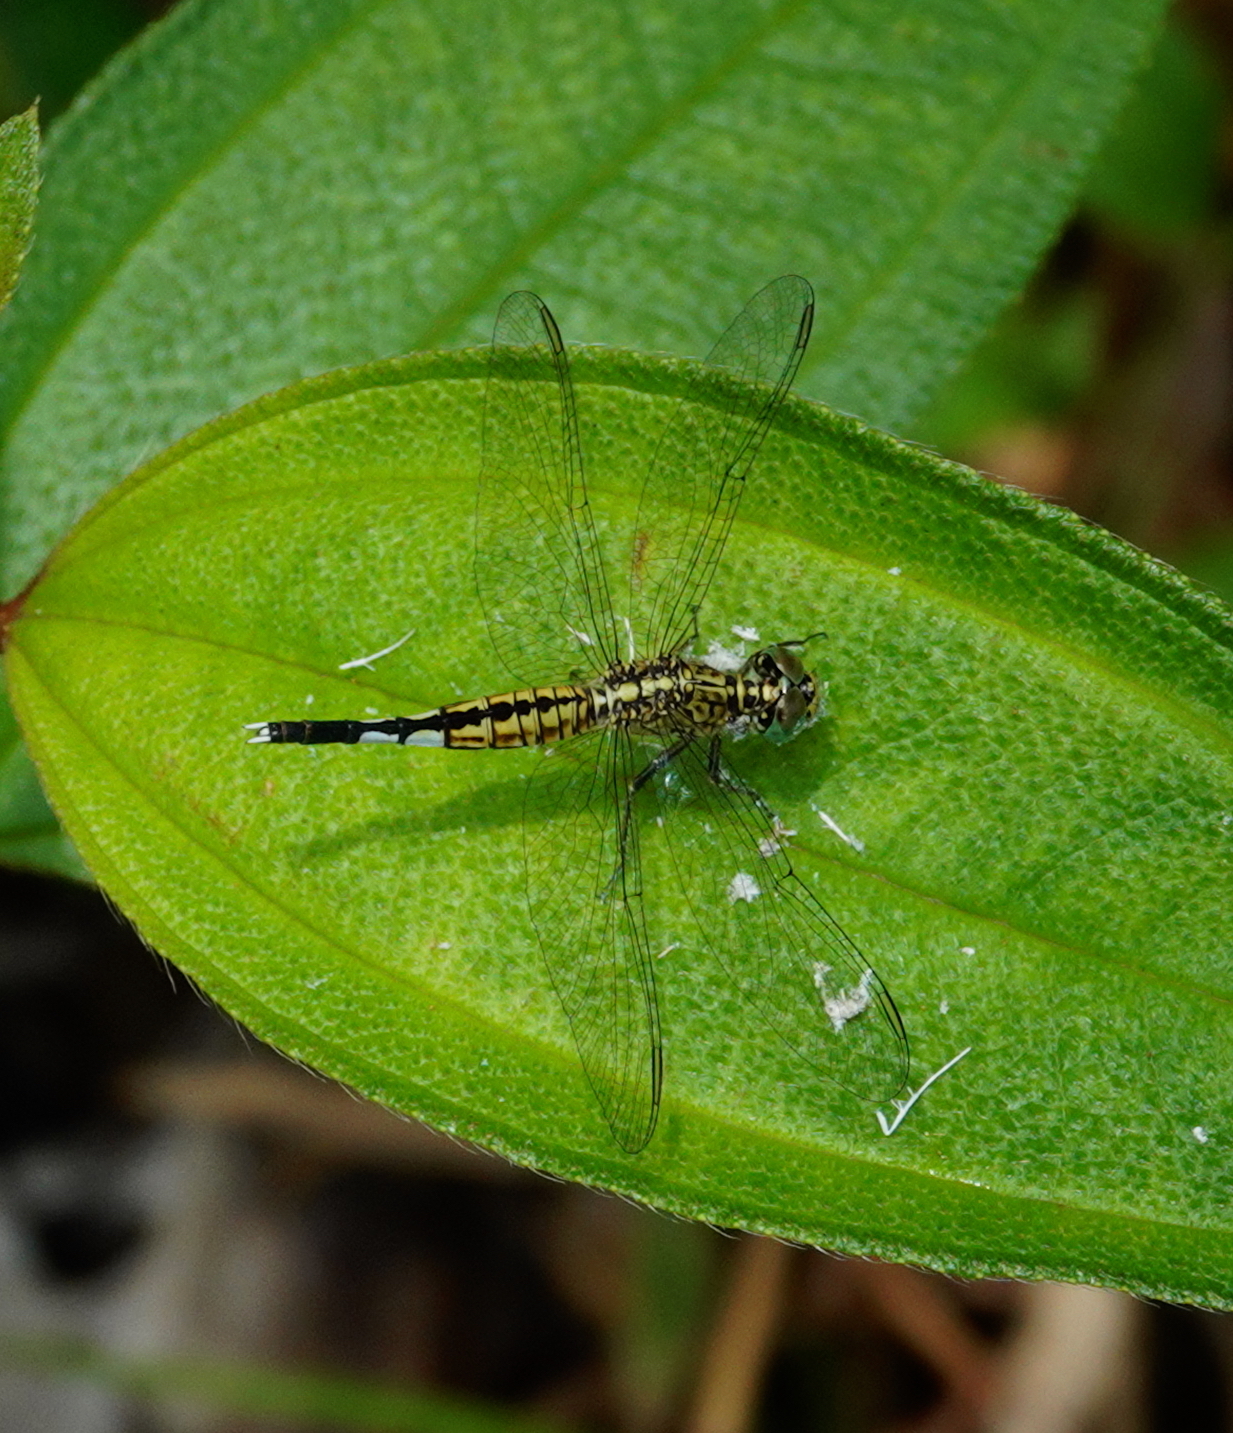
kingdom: Animalia
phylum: Arthropoda
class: Insecta
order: Odonata
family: Libellulidae
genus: Acisoma
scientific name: Acisoma panorpoides
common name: Asian pintail
